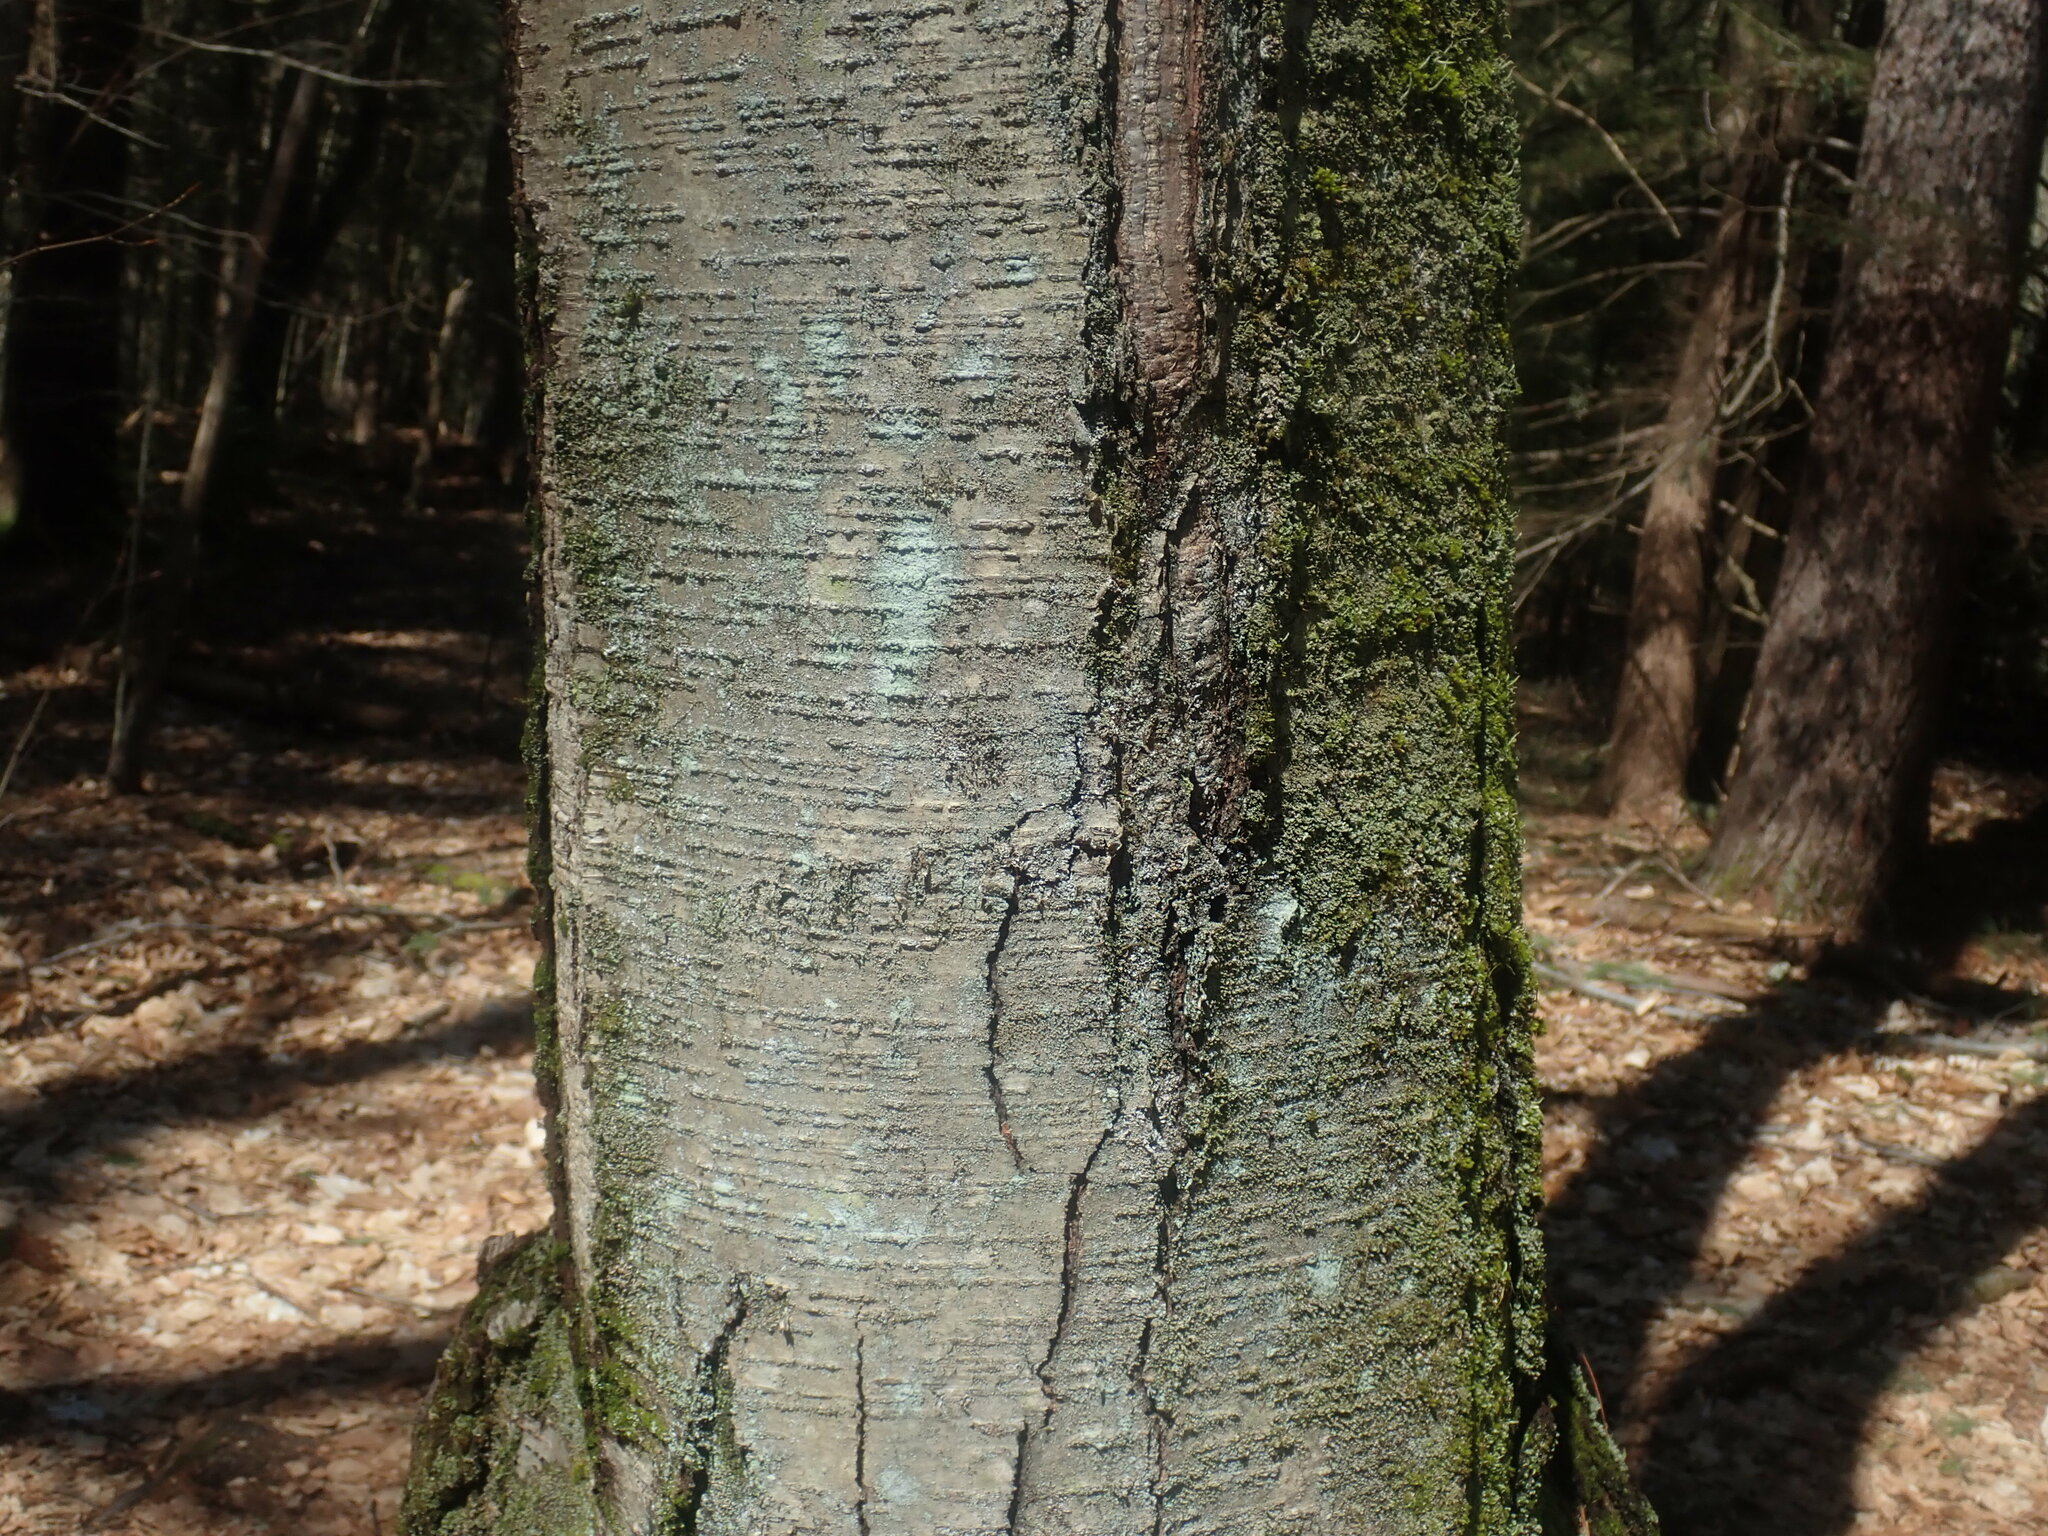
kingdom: Plantae
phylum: Tracheophyta
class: Magnoliopsida
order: Fagales
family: Betulaceae
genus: Betula
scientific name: Betula lenta
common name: Black birch
